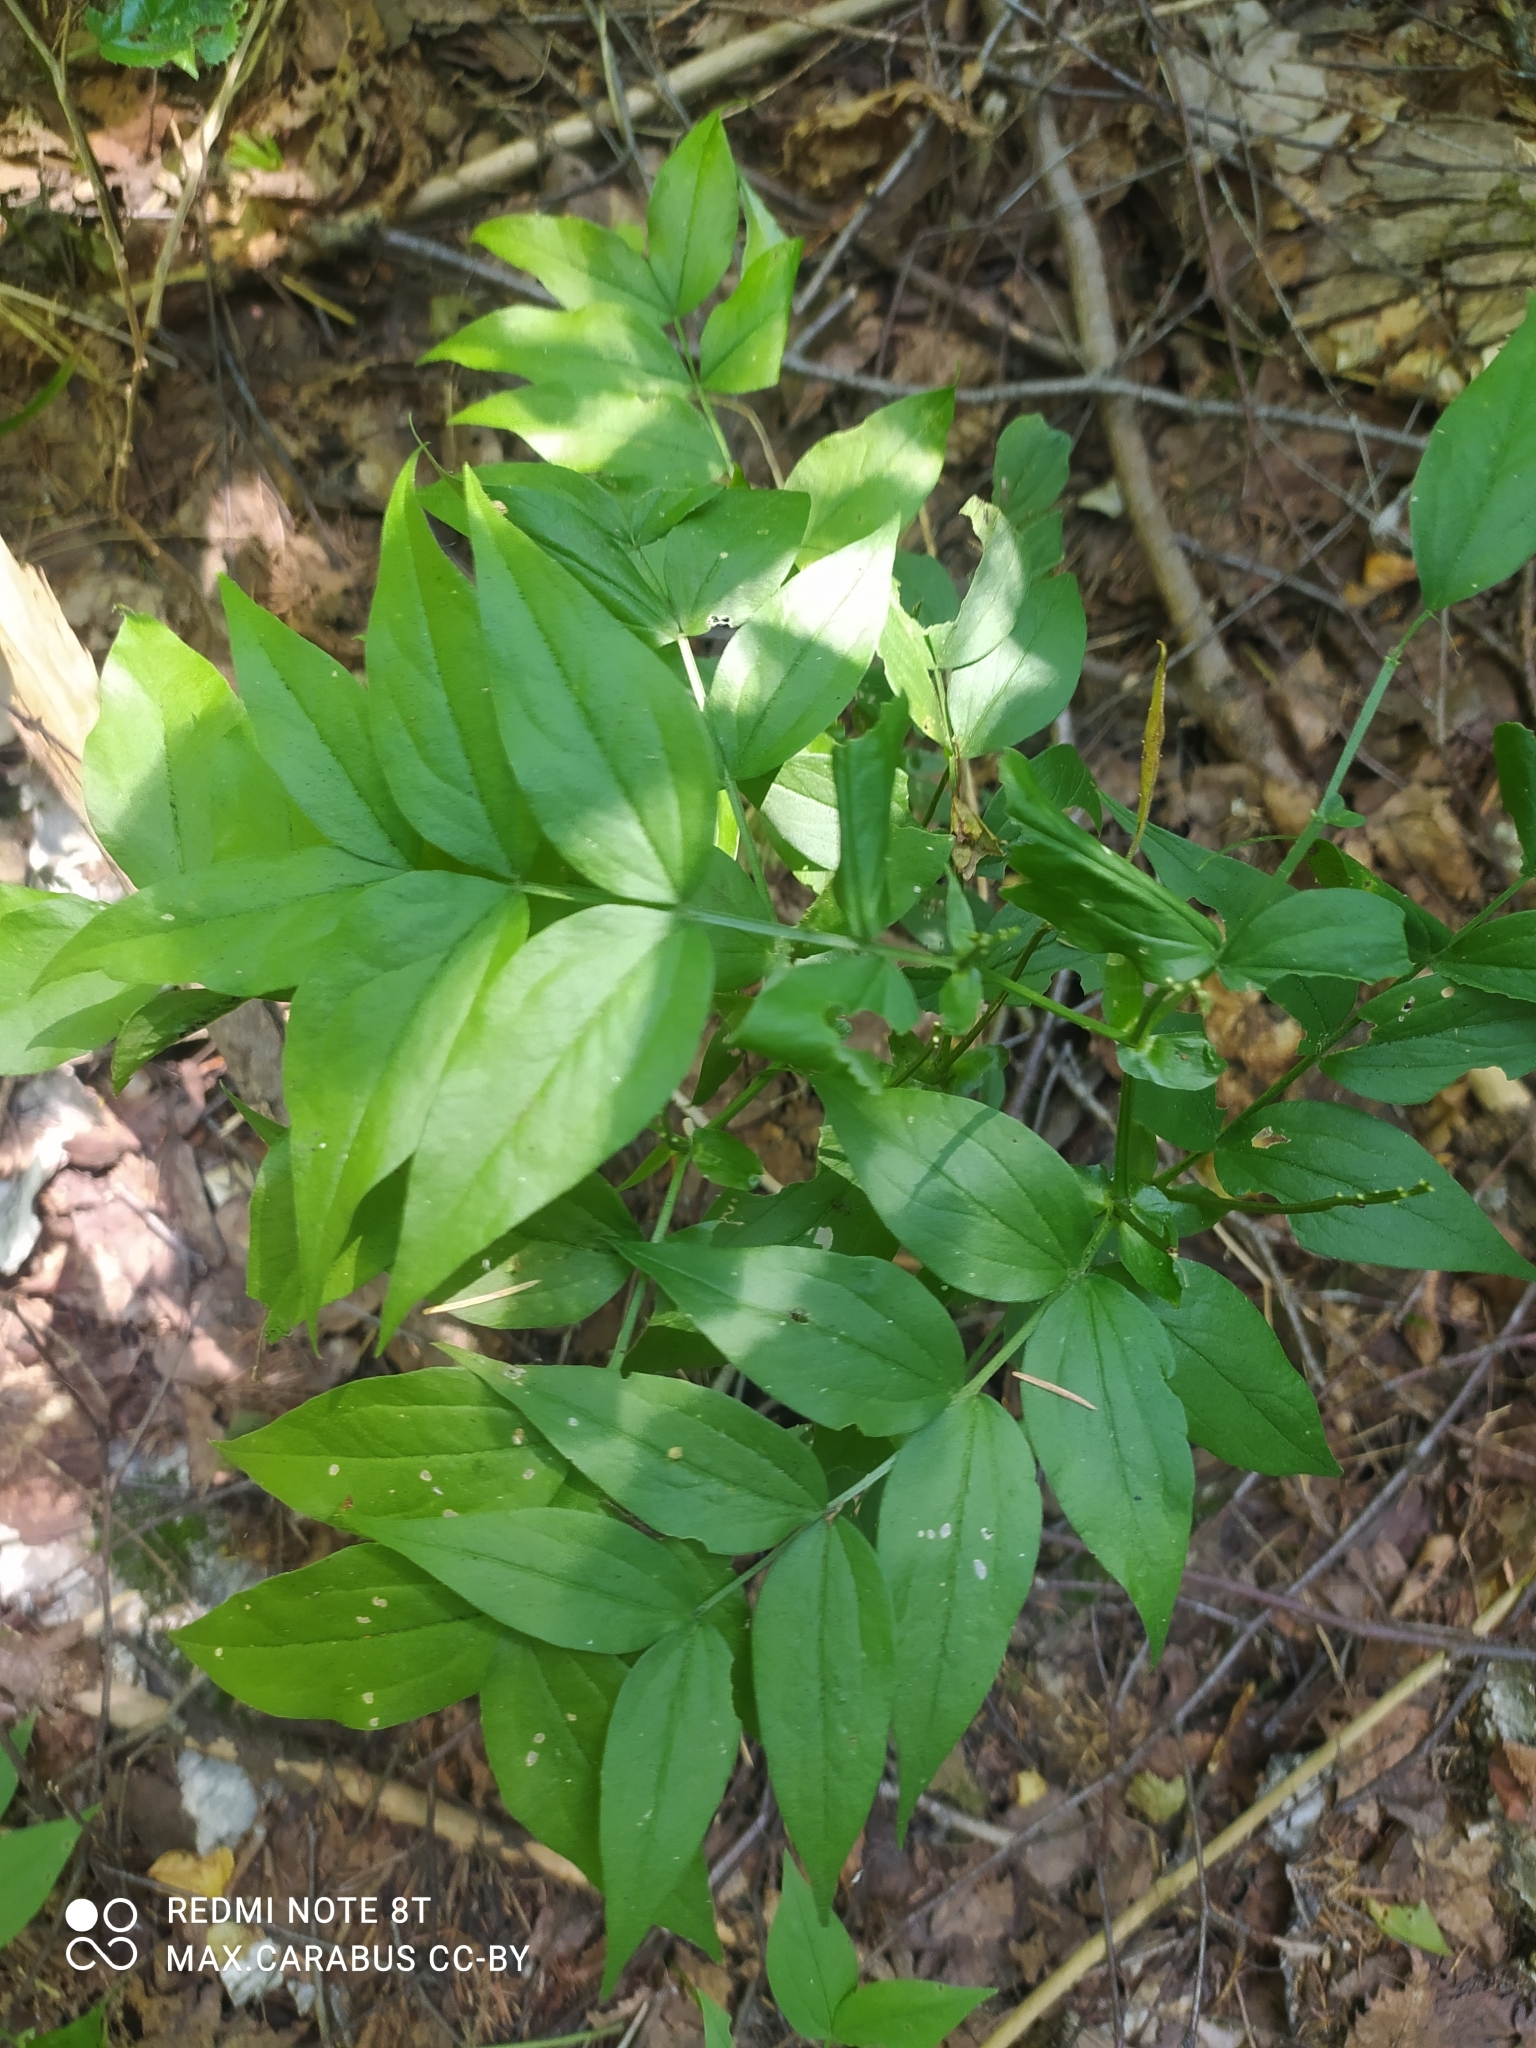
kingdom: Plantae
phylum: Tracheophyta
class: Magnoliopsida
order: Fabales
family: Fabaceae
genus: Lathyrus
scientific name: Lathyrus vernus
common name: Spring pea
